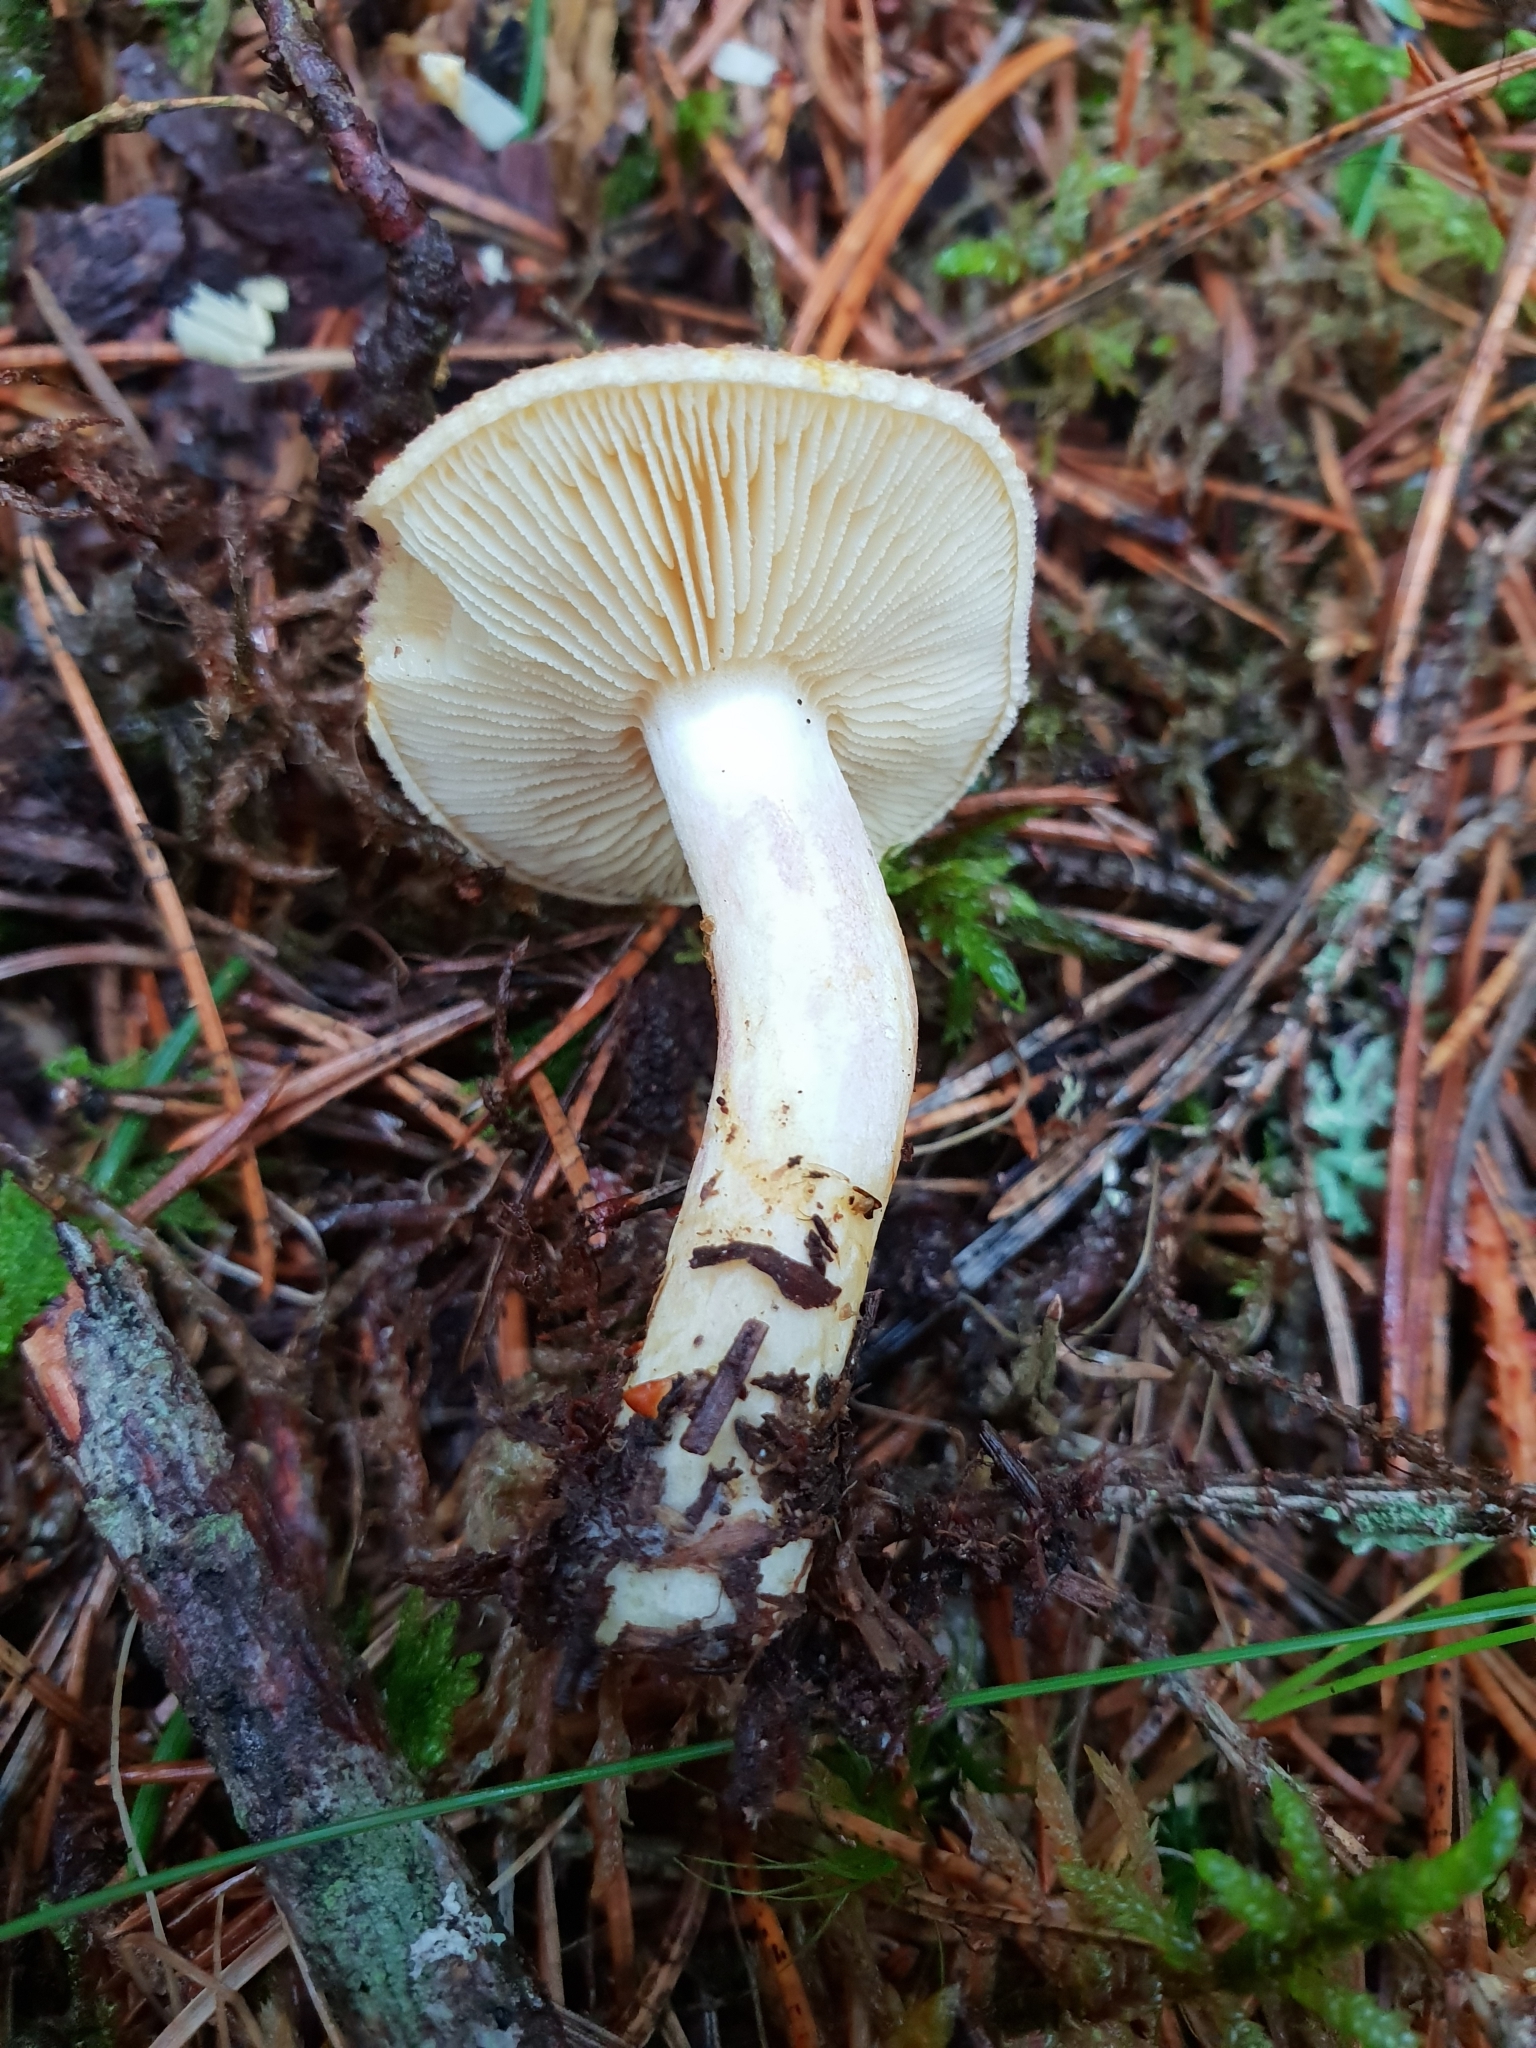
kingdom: Fungi
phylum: Basidiomycota
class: Agaricomycetes
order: Agaricales
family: Tricholomataceae
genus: Tricholomopsis
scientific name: Tricholomopsis rutilans
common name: Plums and custard
